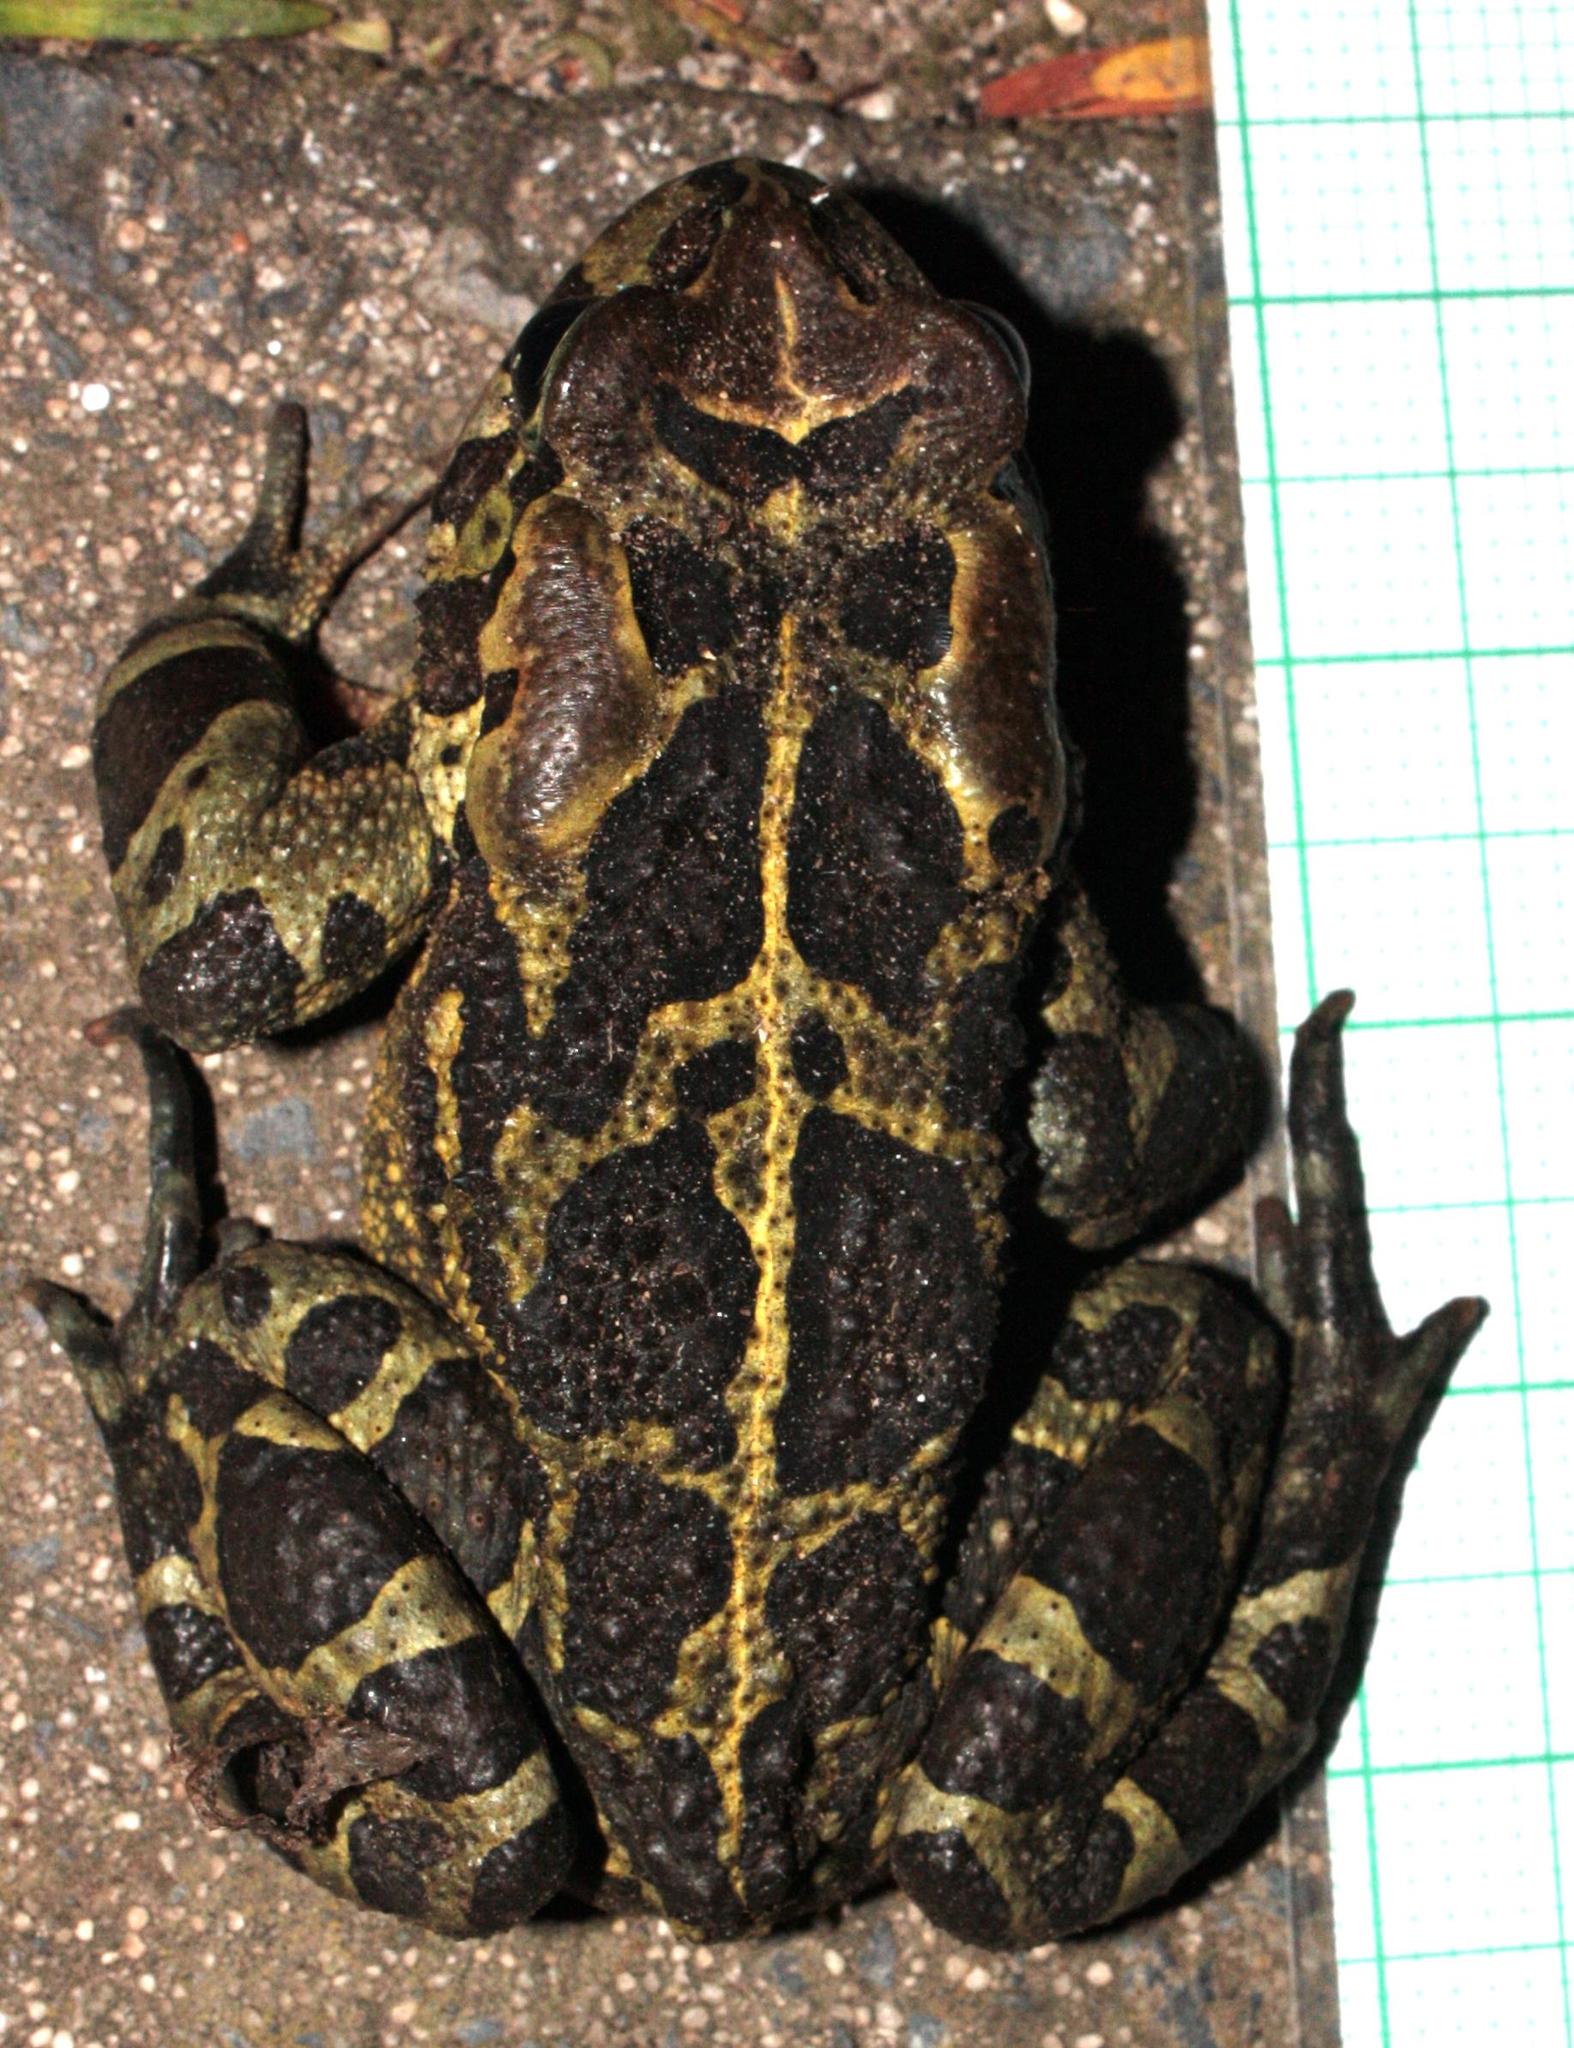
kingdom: Animalia
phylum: Chordata
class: Amphibia
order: Anura
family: Bufonidae
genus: Sclerophrys
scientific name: Sclerophrys pantherina
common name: Panther toad
